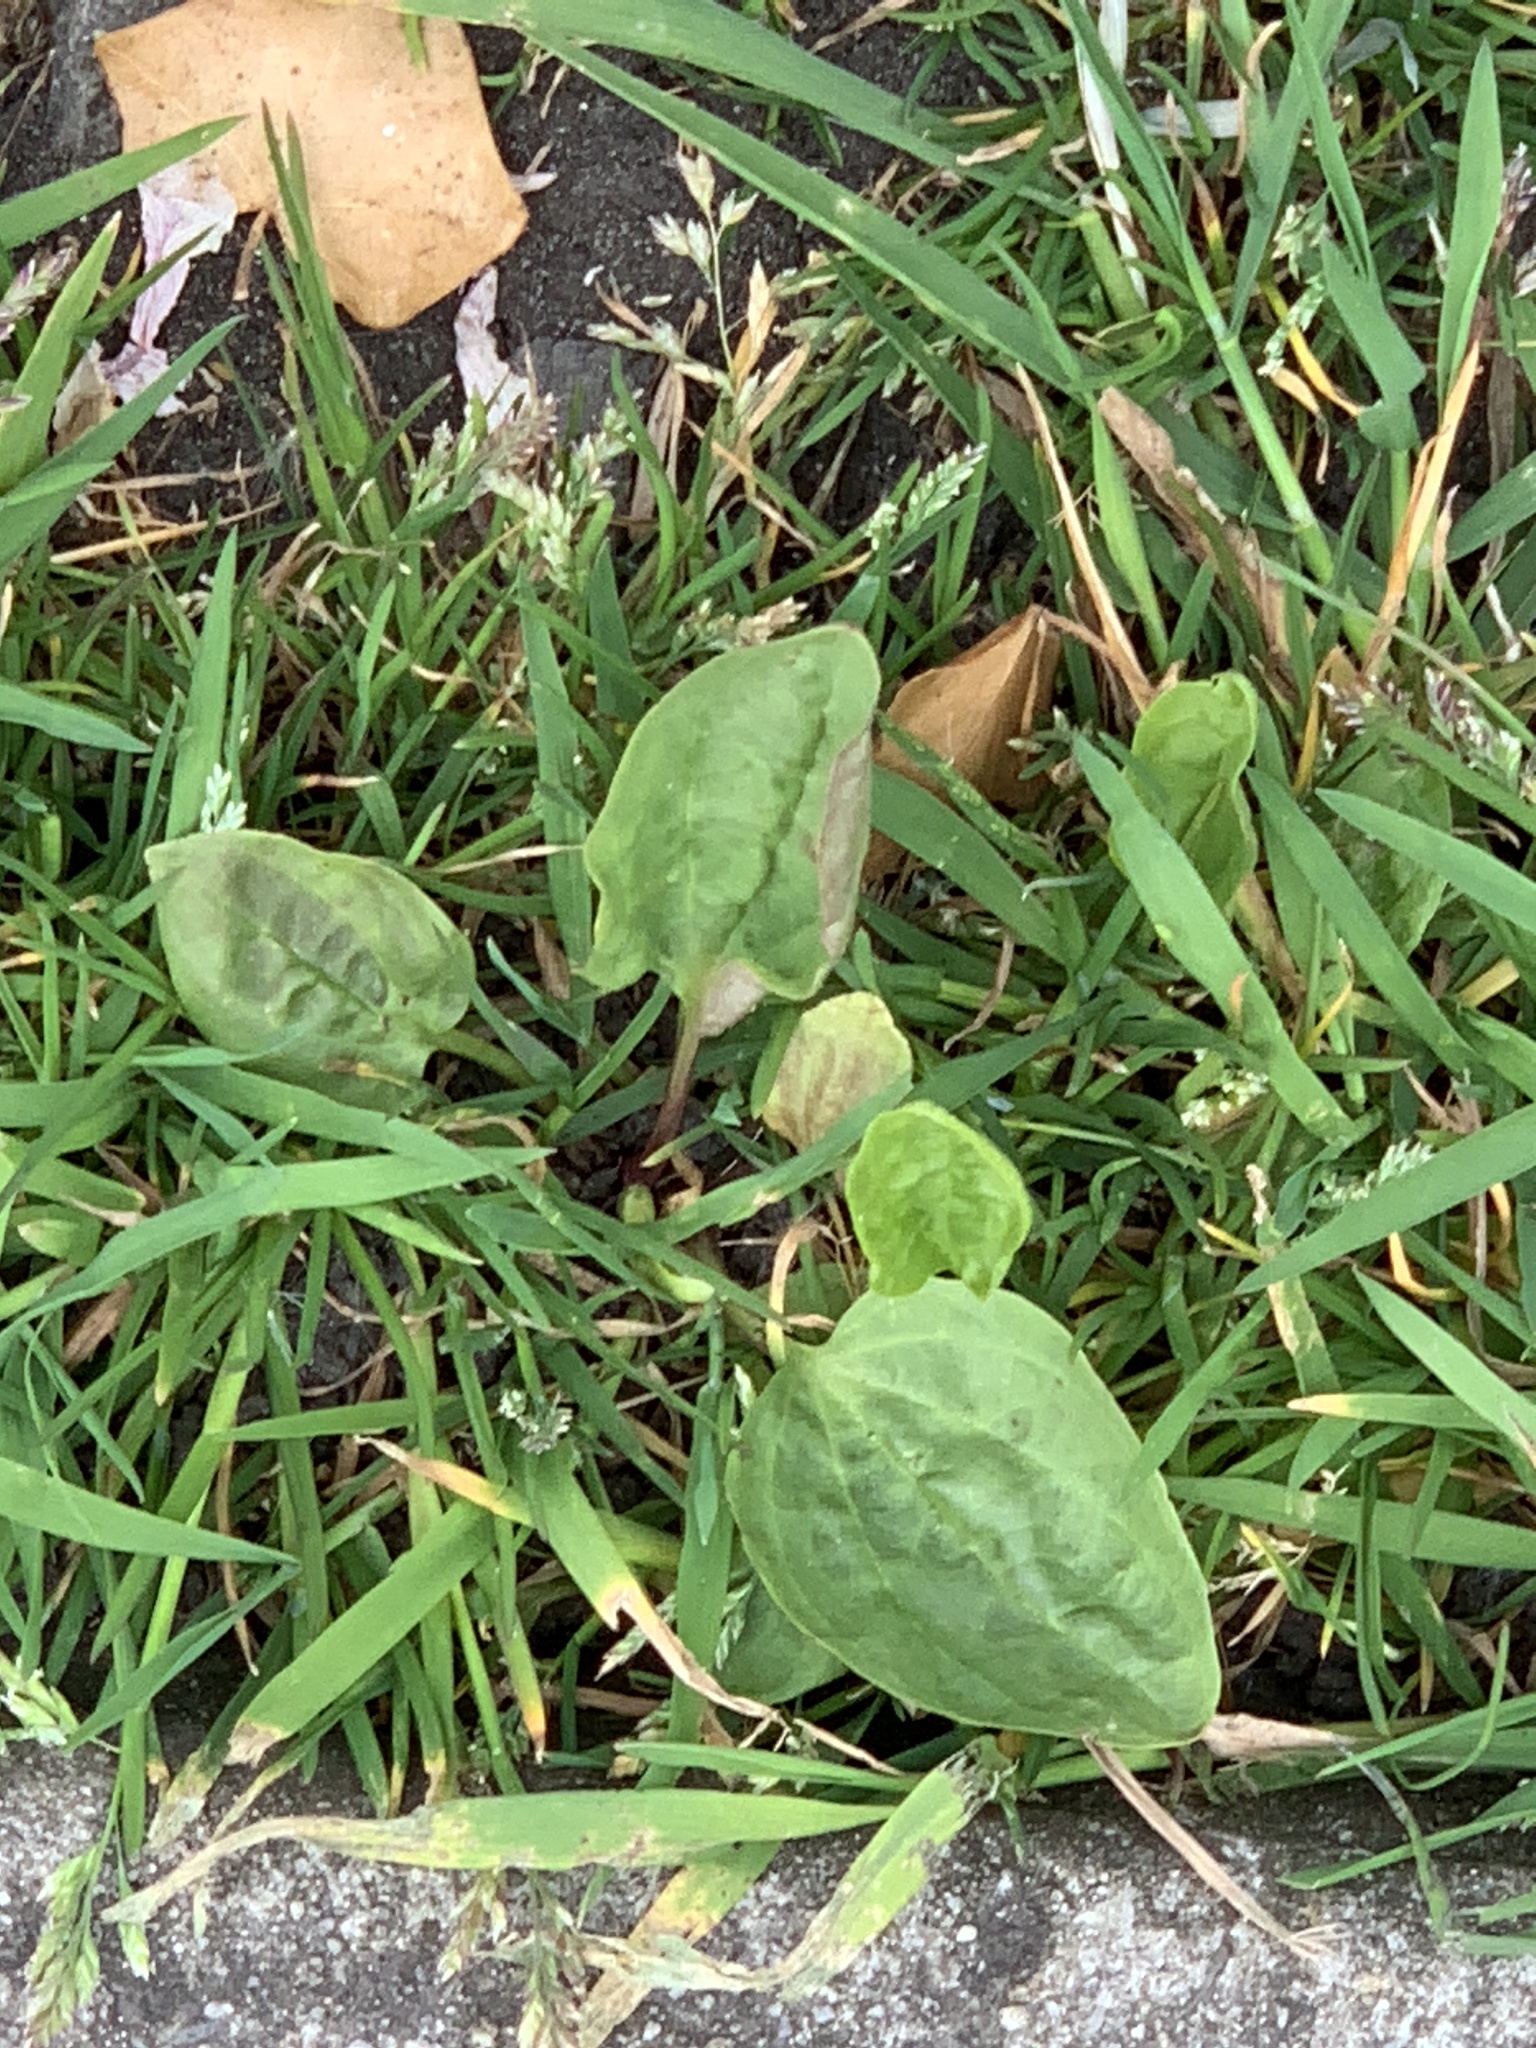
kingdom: Plantae
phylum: Tracheophyta
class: Magnoliopsida
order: Lamiales
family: Plantaginaceae
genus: Plantago
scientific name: Plantago major
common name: Common plantain
